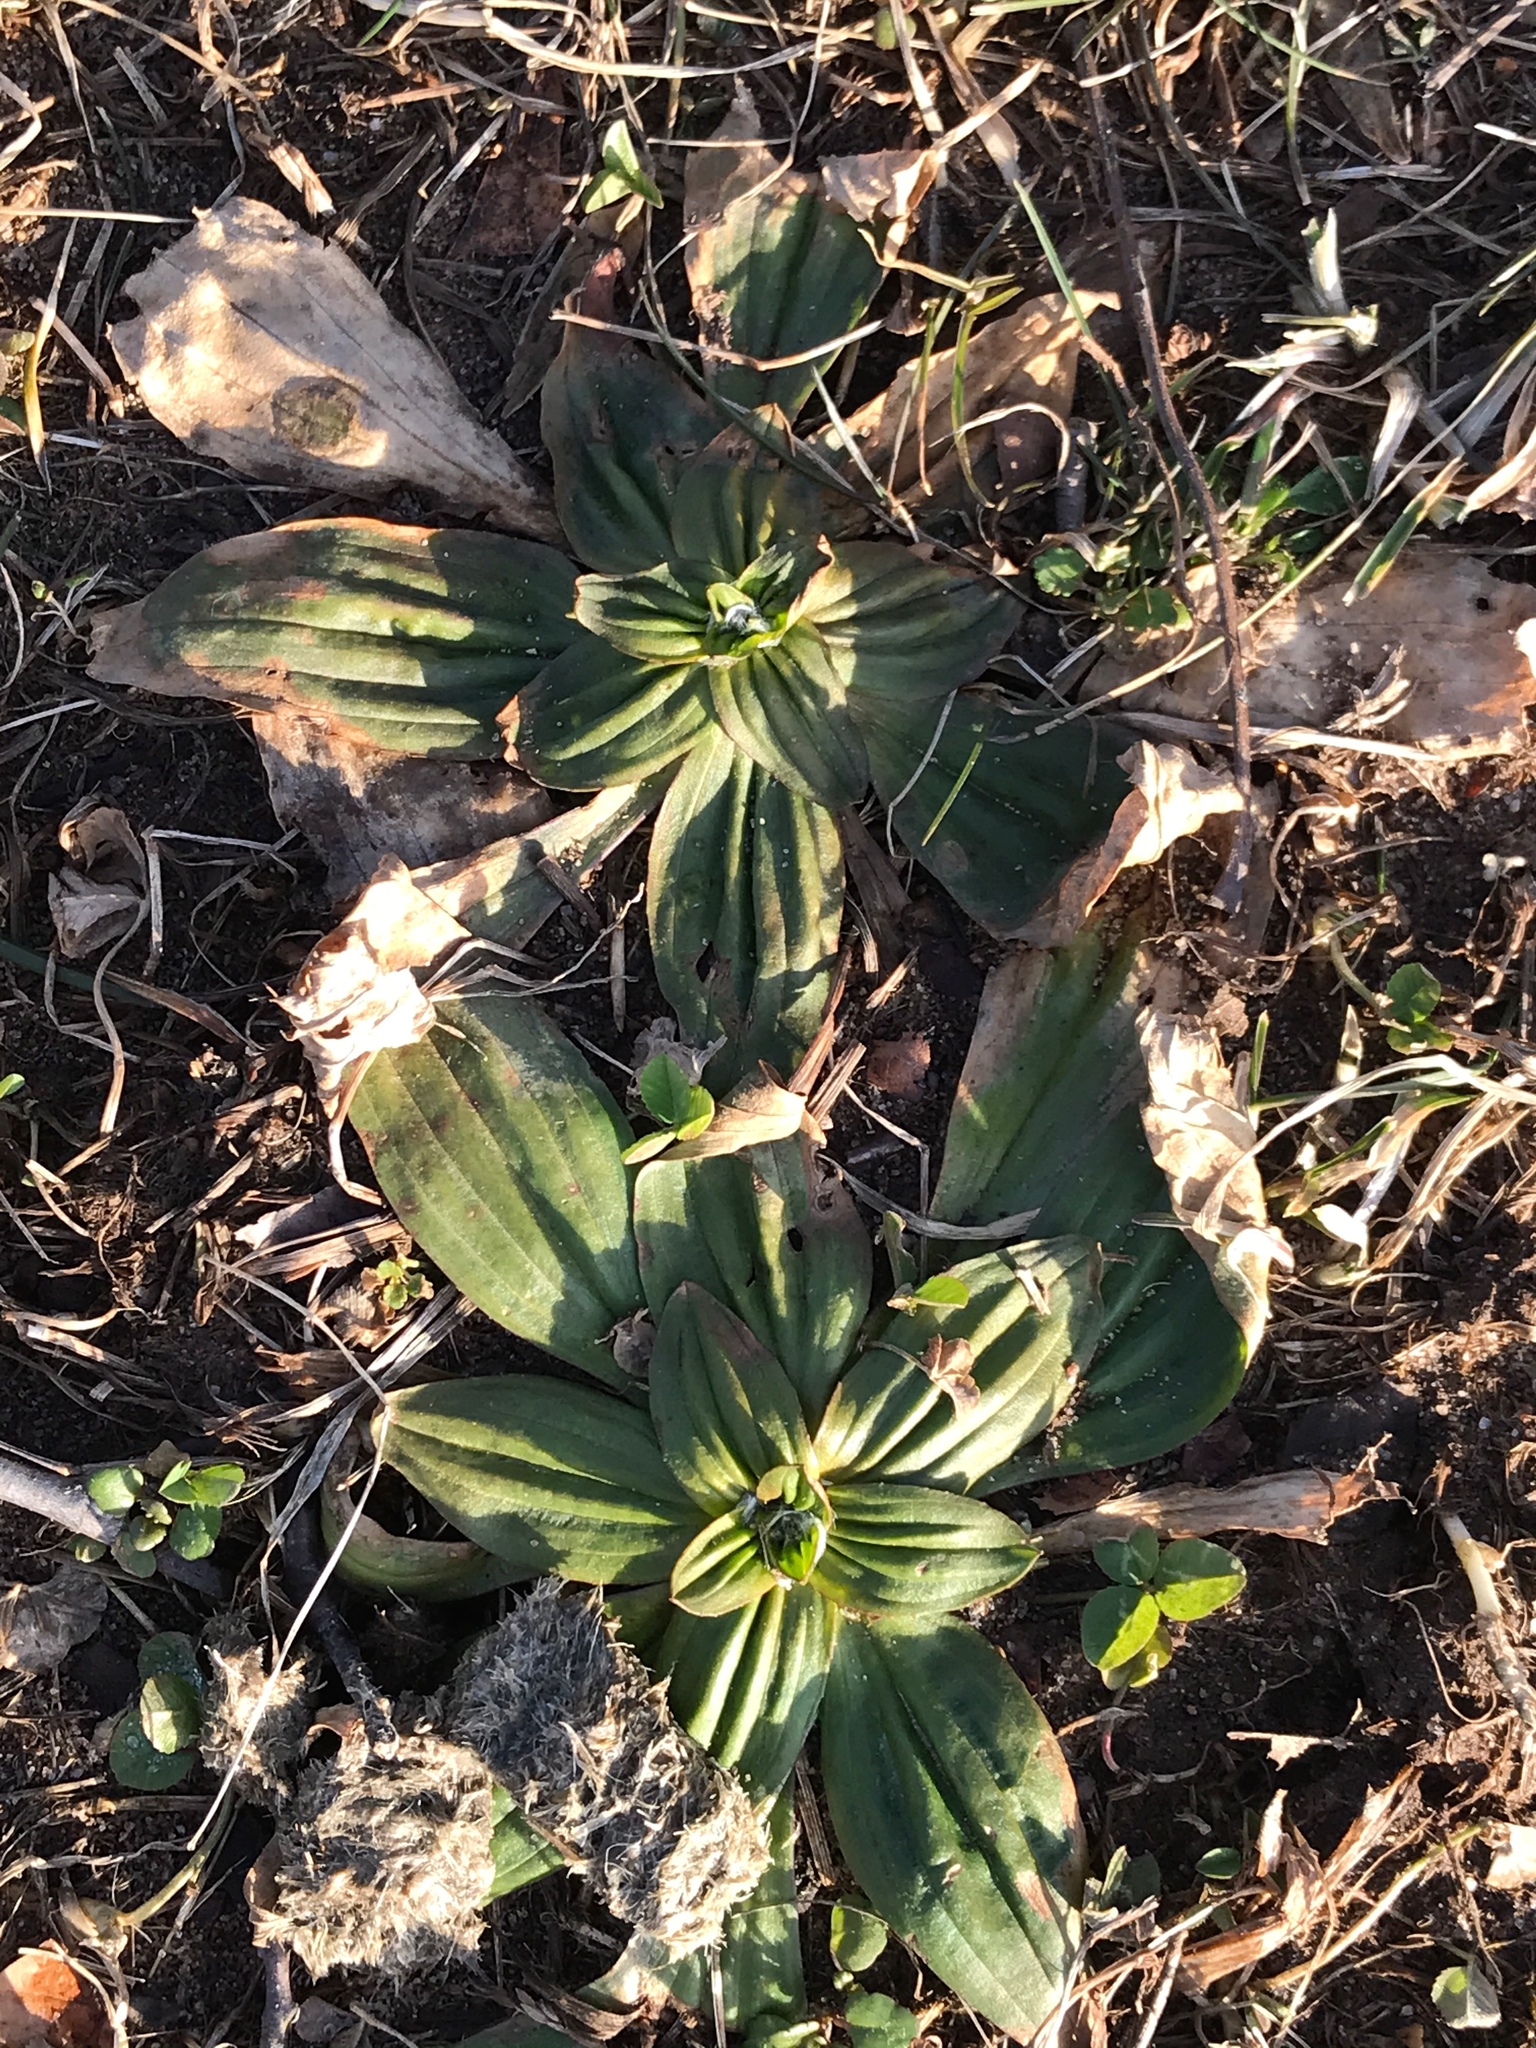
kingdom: Plantae
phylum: Tracheophyta
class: Magnoliopsida
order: Lamiales
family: Plantaginaceae
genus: Plantago
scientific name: Plantago lanceolata
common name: Ribwort plantain
